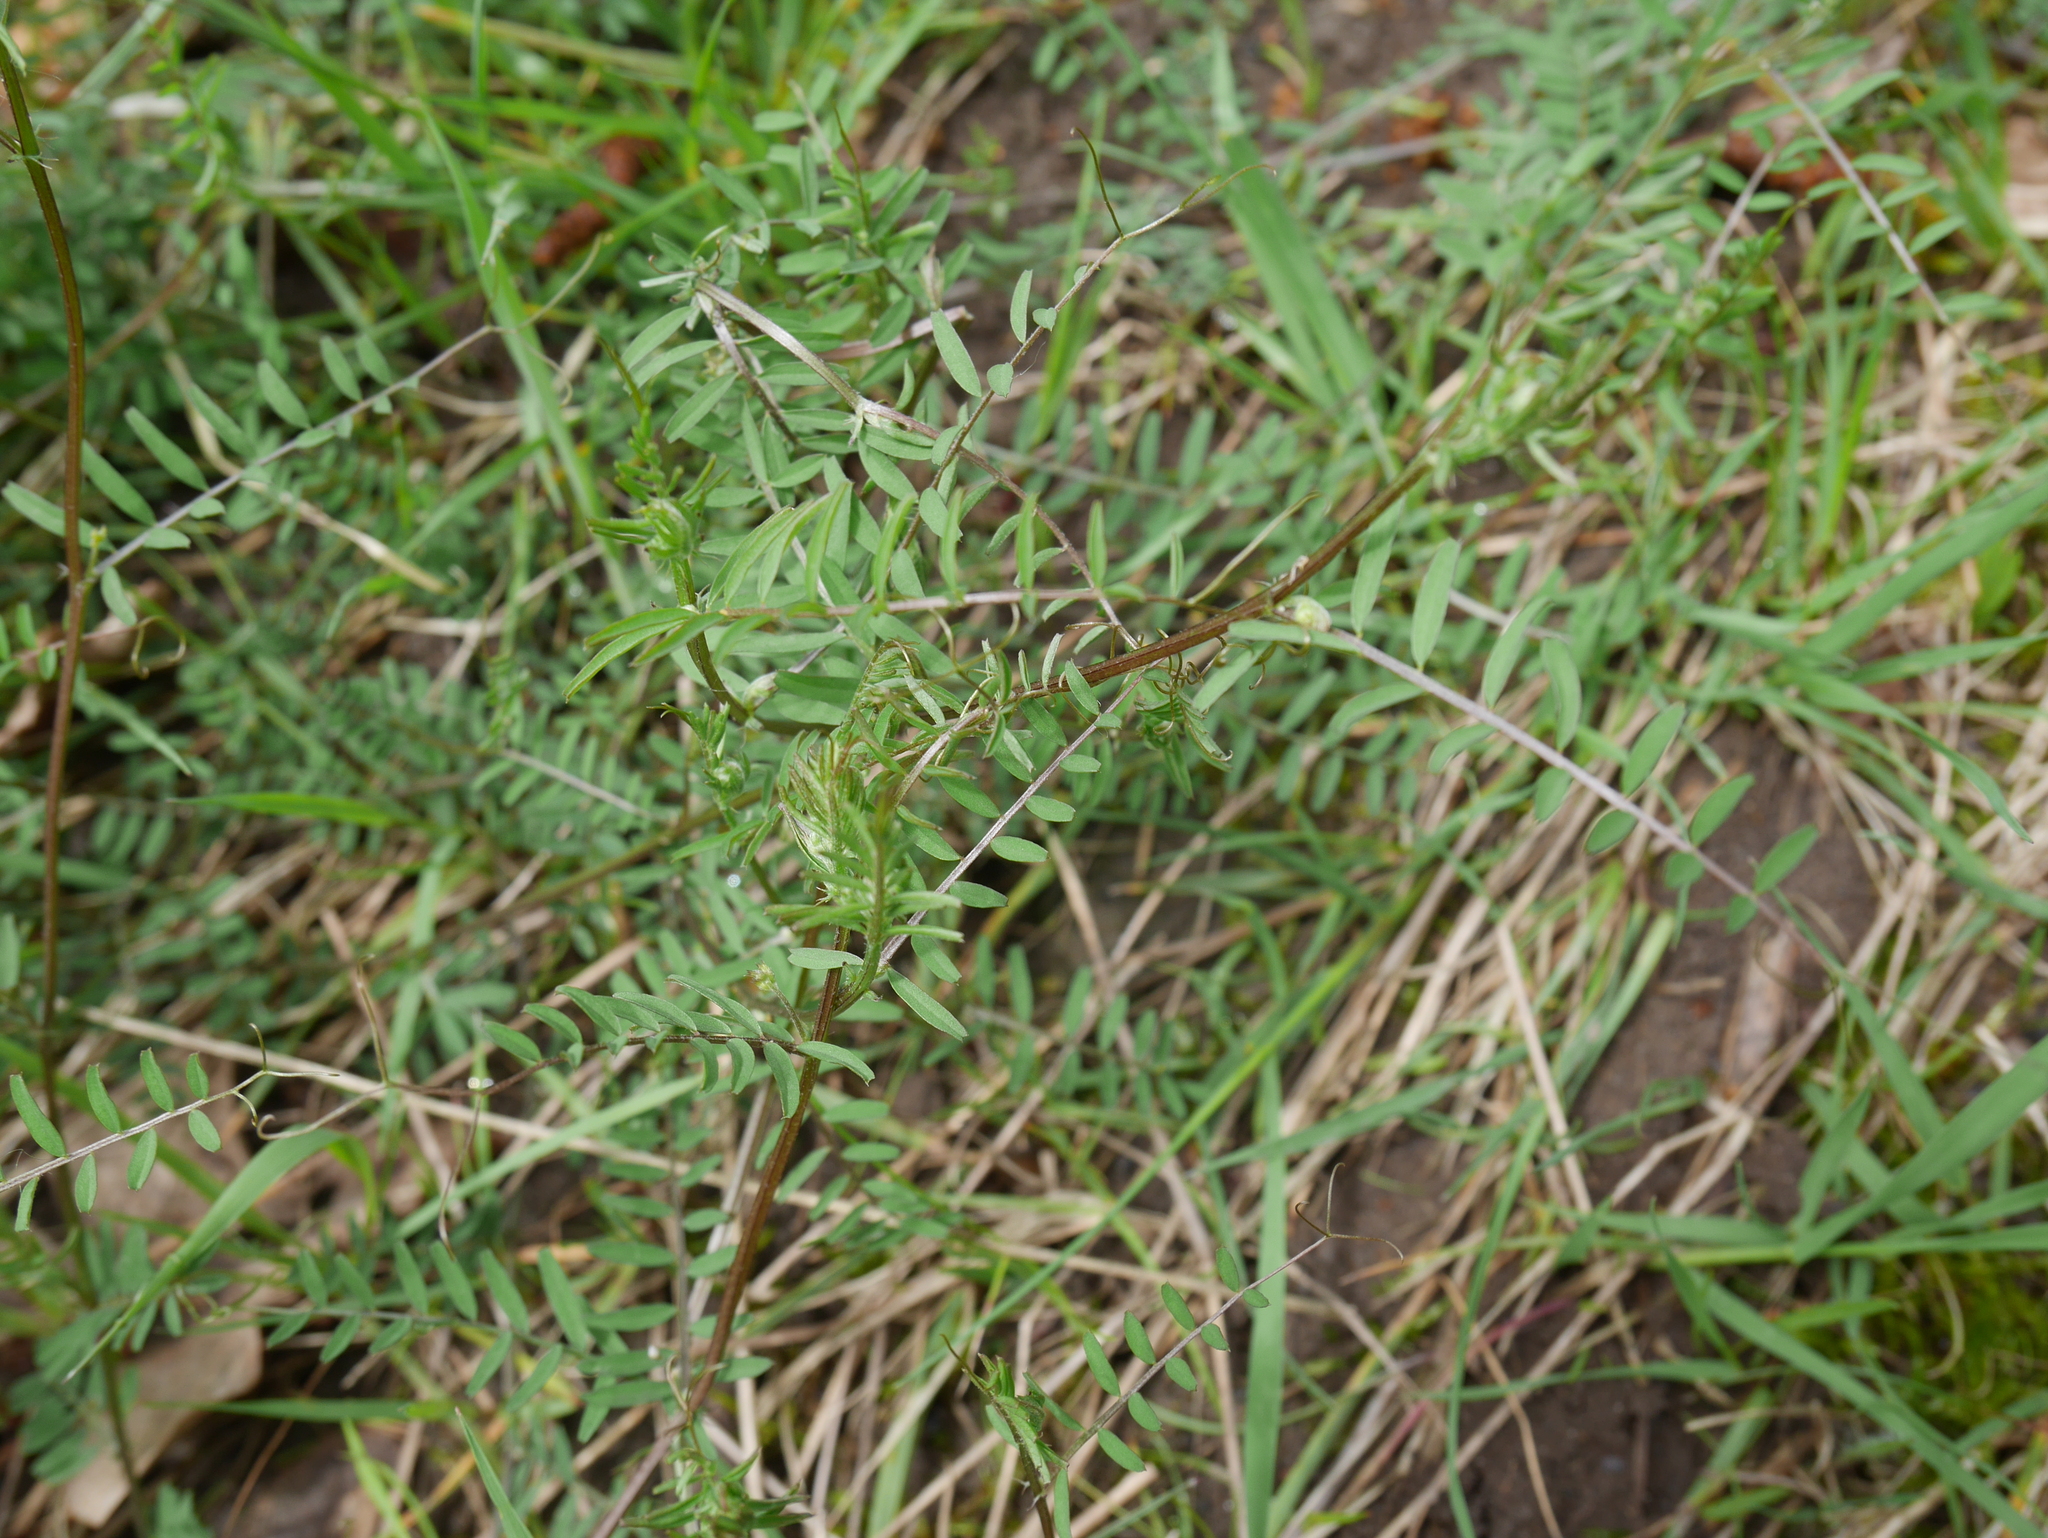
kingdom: Plantae
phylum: Tracheophyta
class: Magnoliopsida
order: Fabales
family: Fabaceae
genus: Vicia
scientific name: Vicia hirsuta
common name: Tiny vetch
